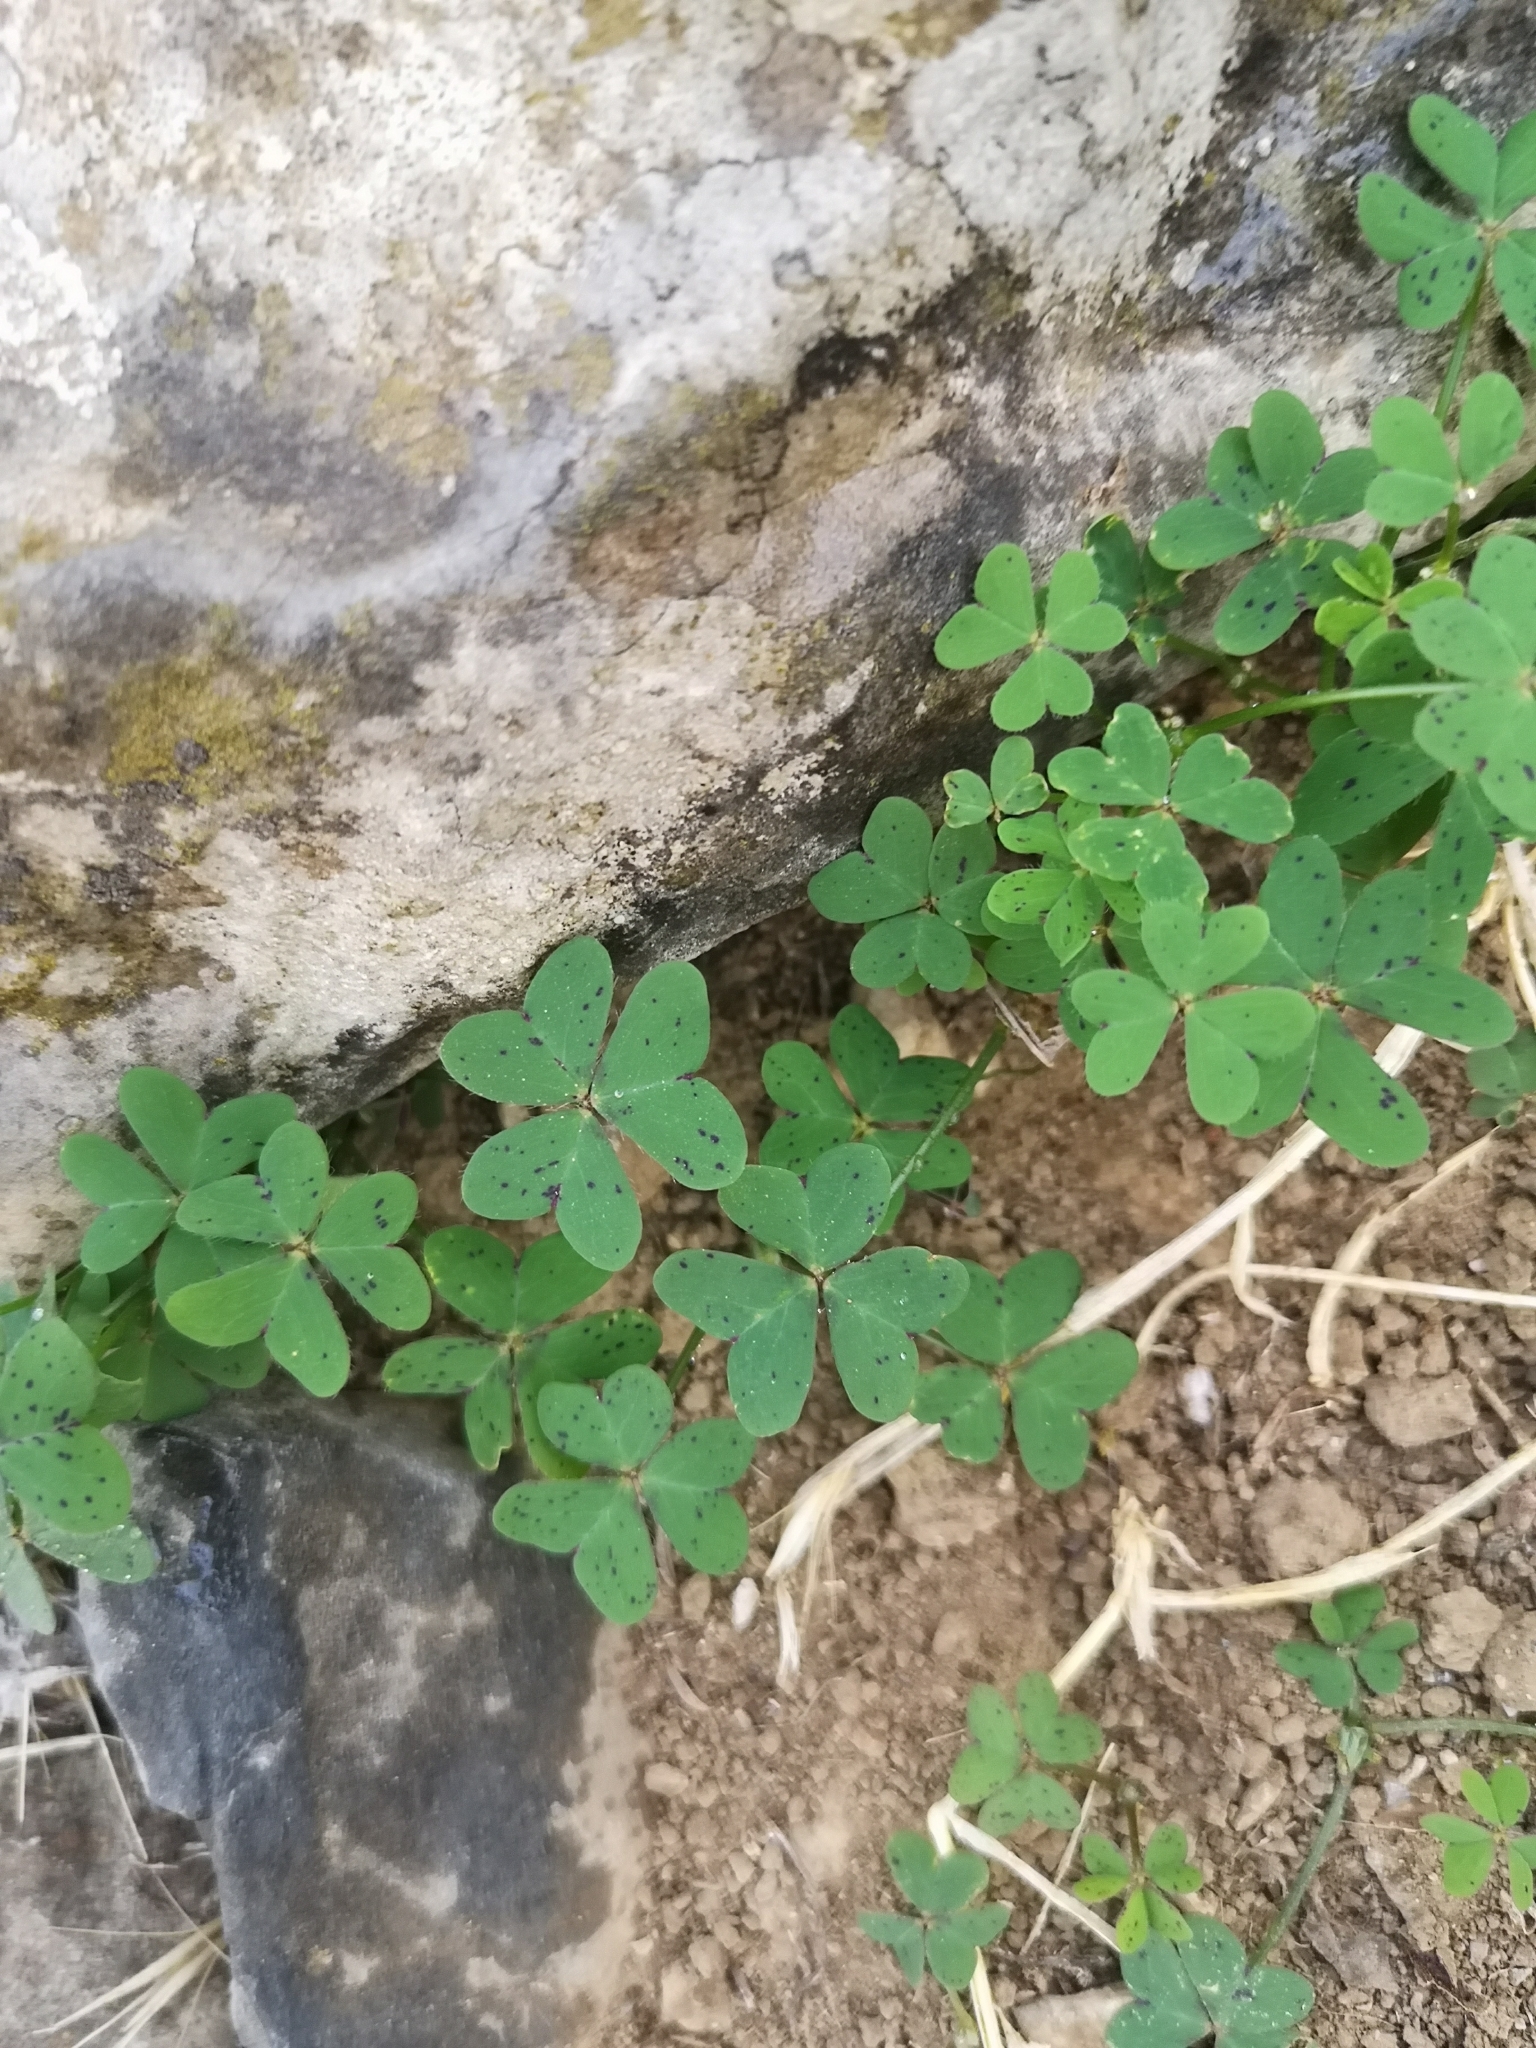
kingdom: Plantae
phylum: Tracheophyta
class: Magnoliopsida
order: Oxalidales
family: Oxalidaceae
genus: Oxalis
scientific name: Oxalis pes-caprae
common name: Bermuda-buttercup
